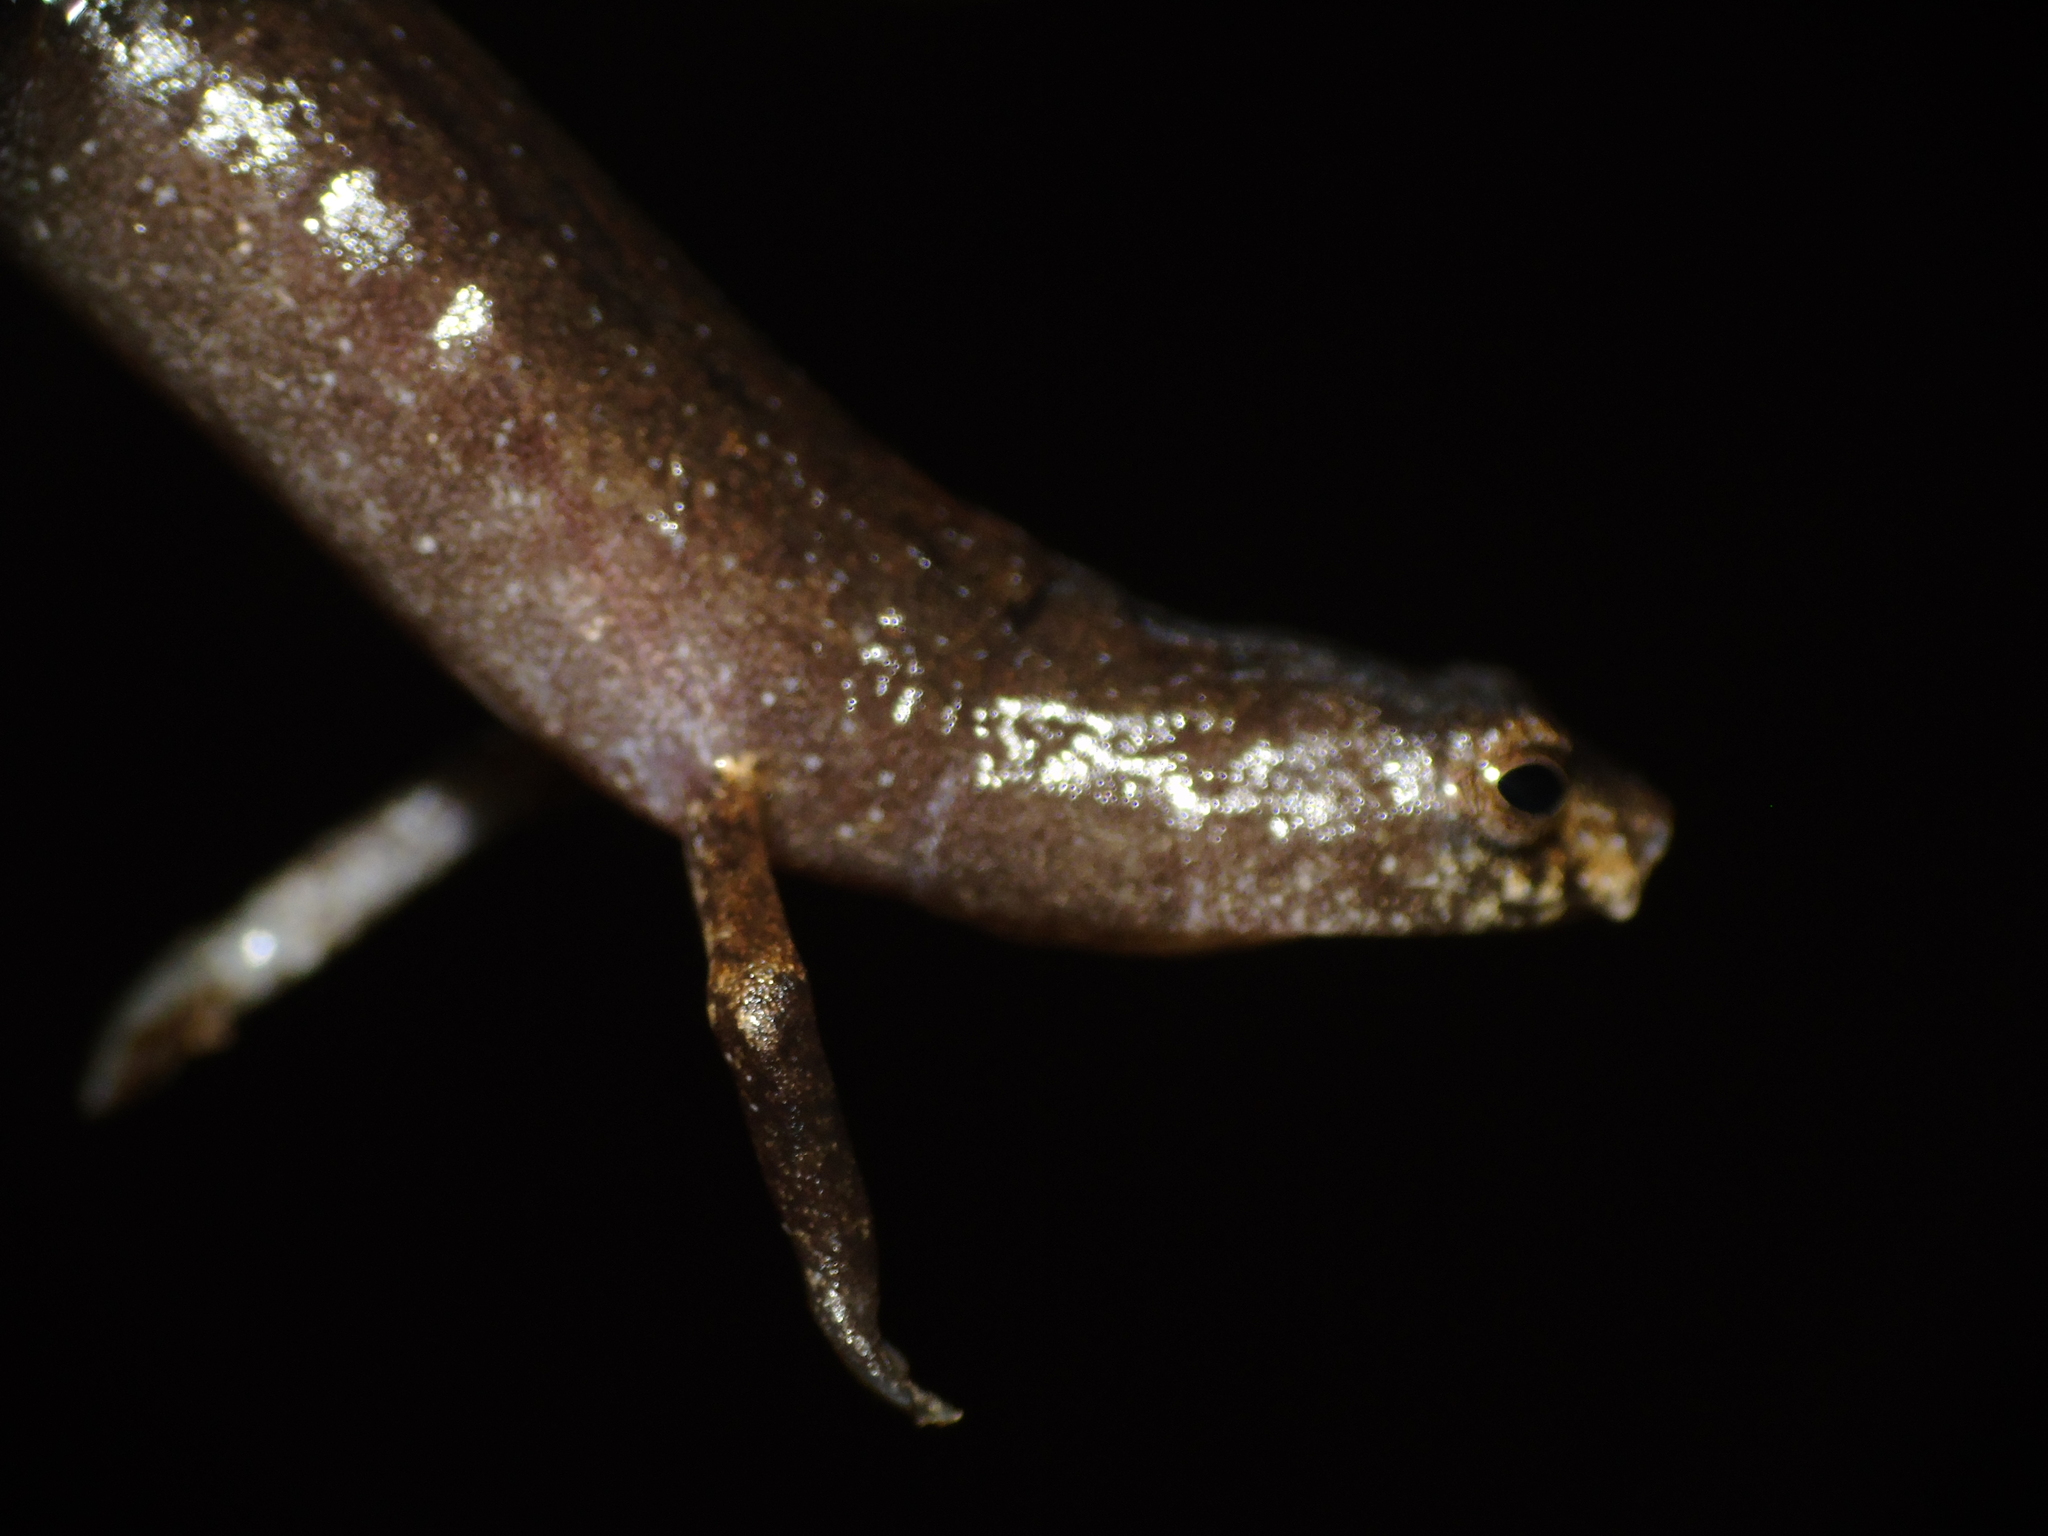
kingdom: Animalia
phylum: Chordata
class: Amphibia
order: Caudata
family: Plethodontidae
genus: Bolitoglossa
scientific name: Bolitoglossa medemi
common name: Finca chibigui salamander
